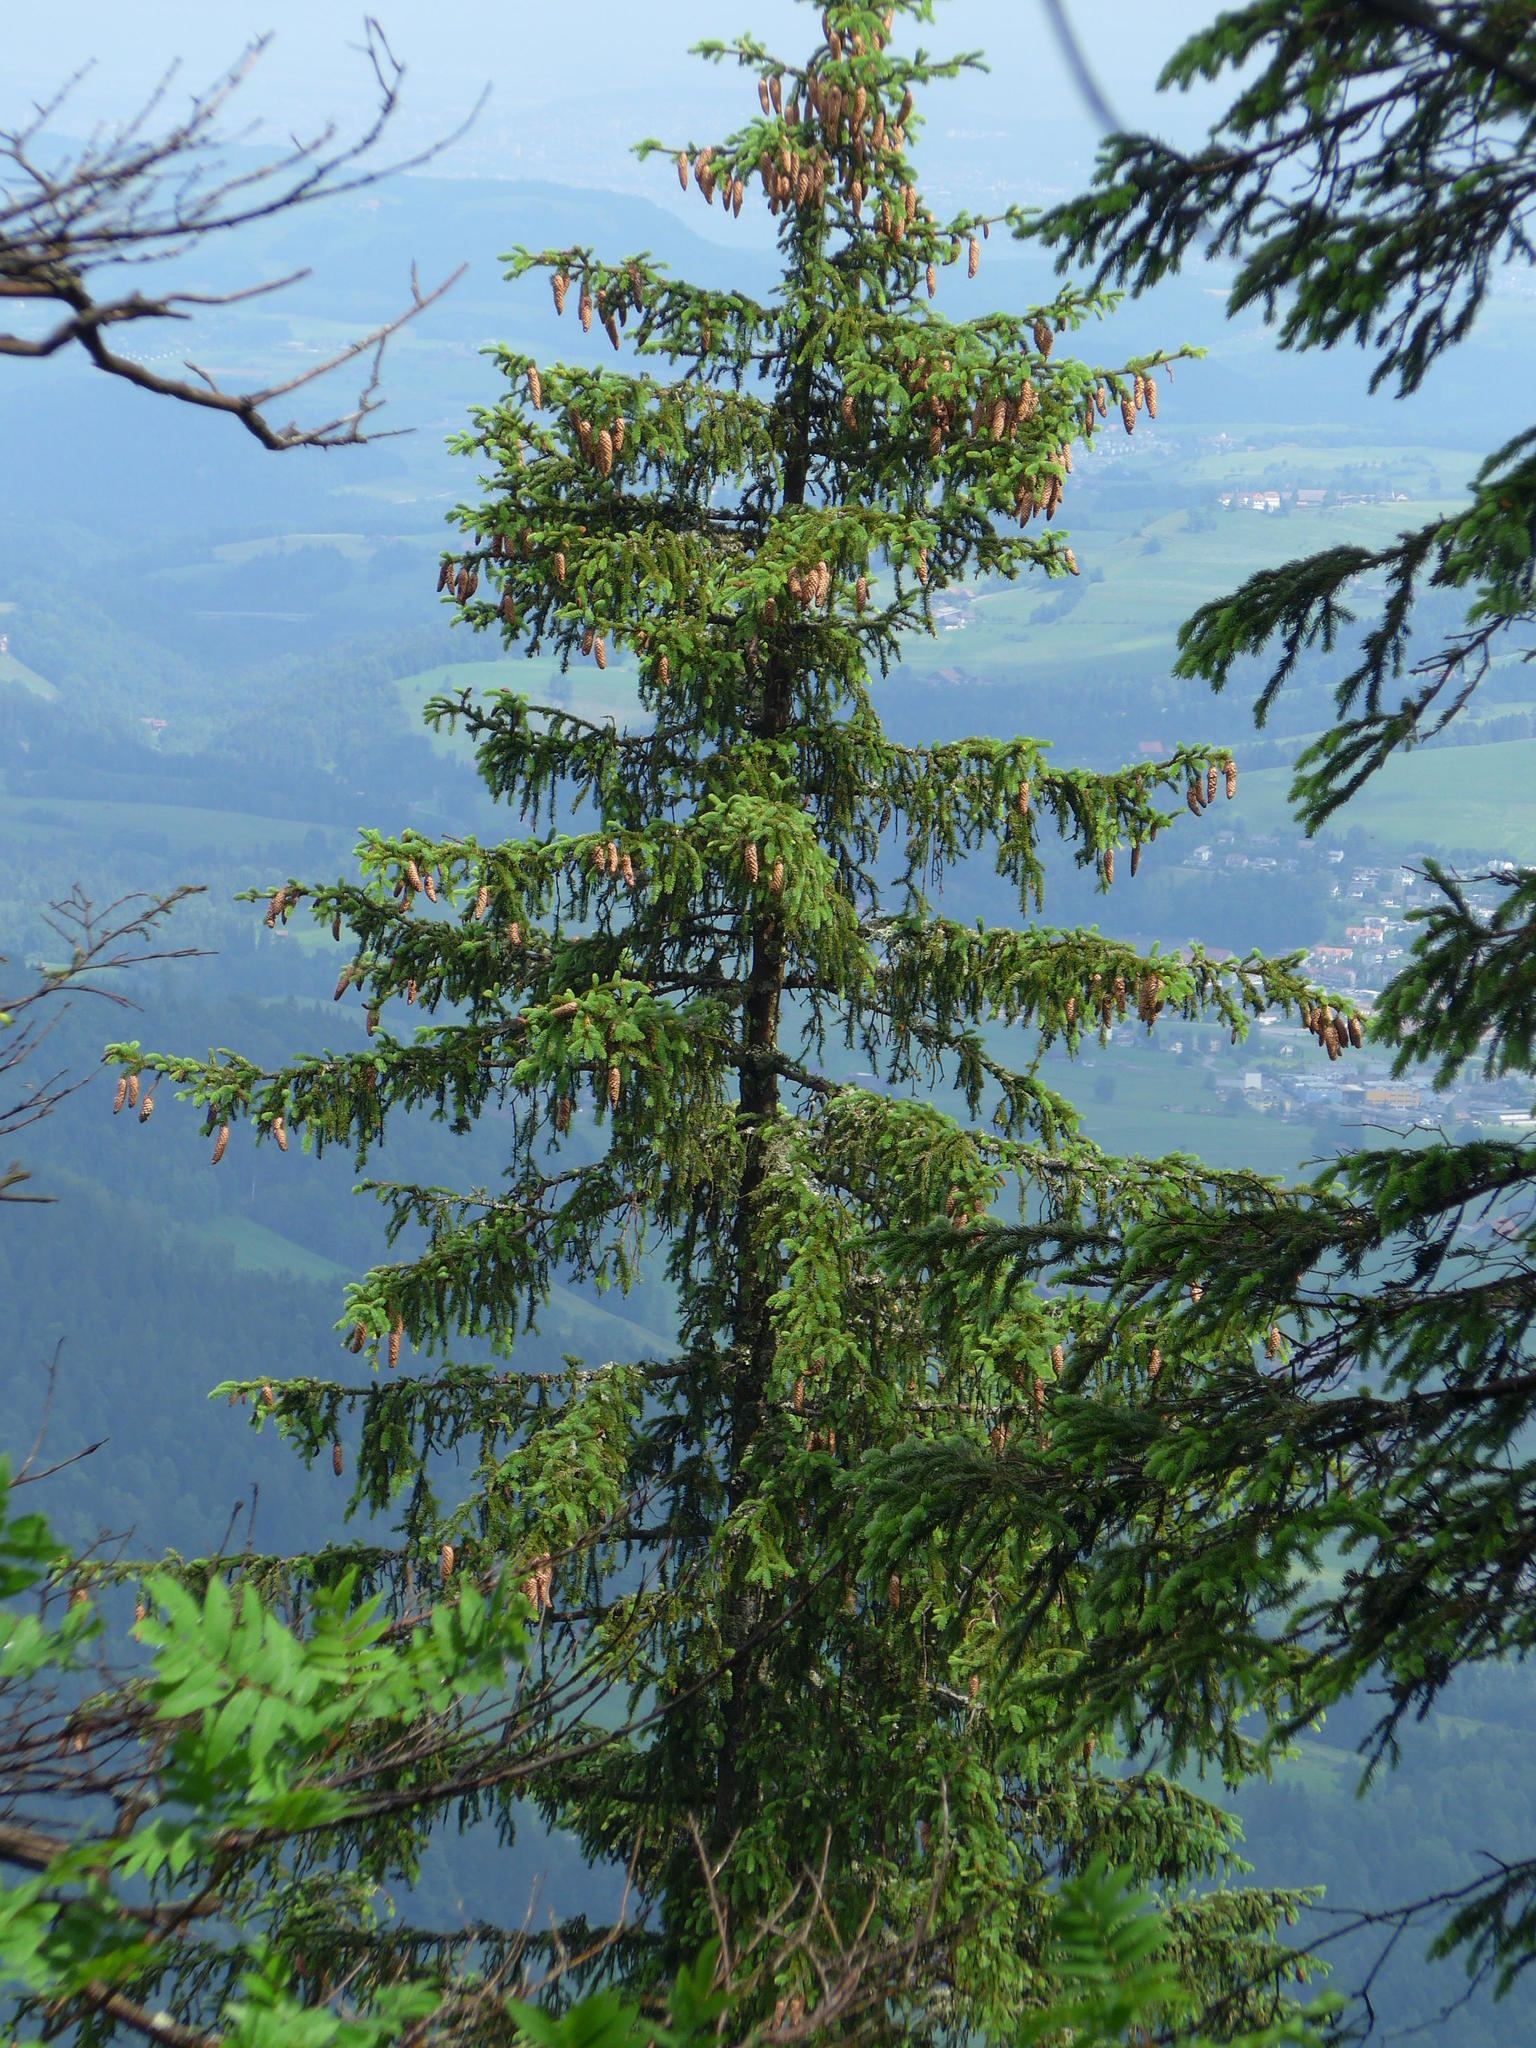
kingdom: Plantae
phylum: Tracheophyta
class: Pinopsida
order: Pinales
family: Pinaceae
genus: Picea
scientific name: Picea abies
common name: Norway spruce
